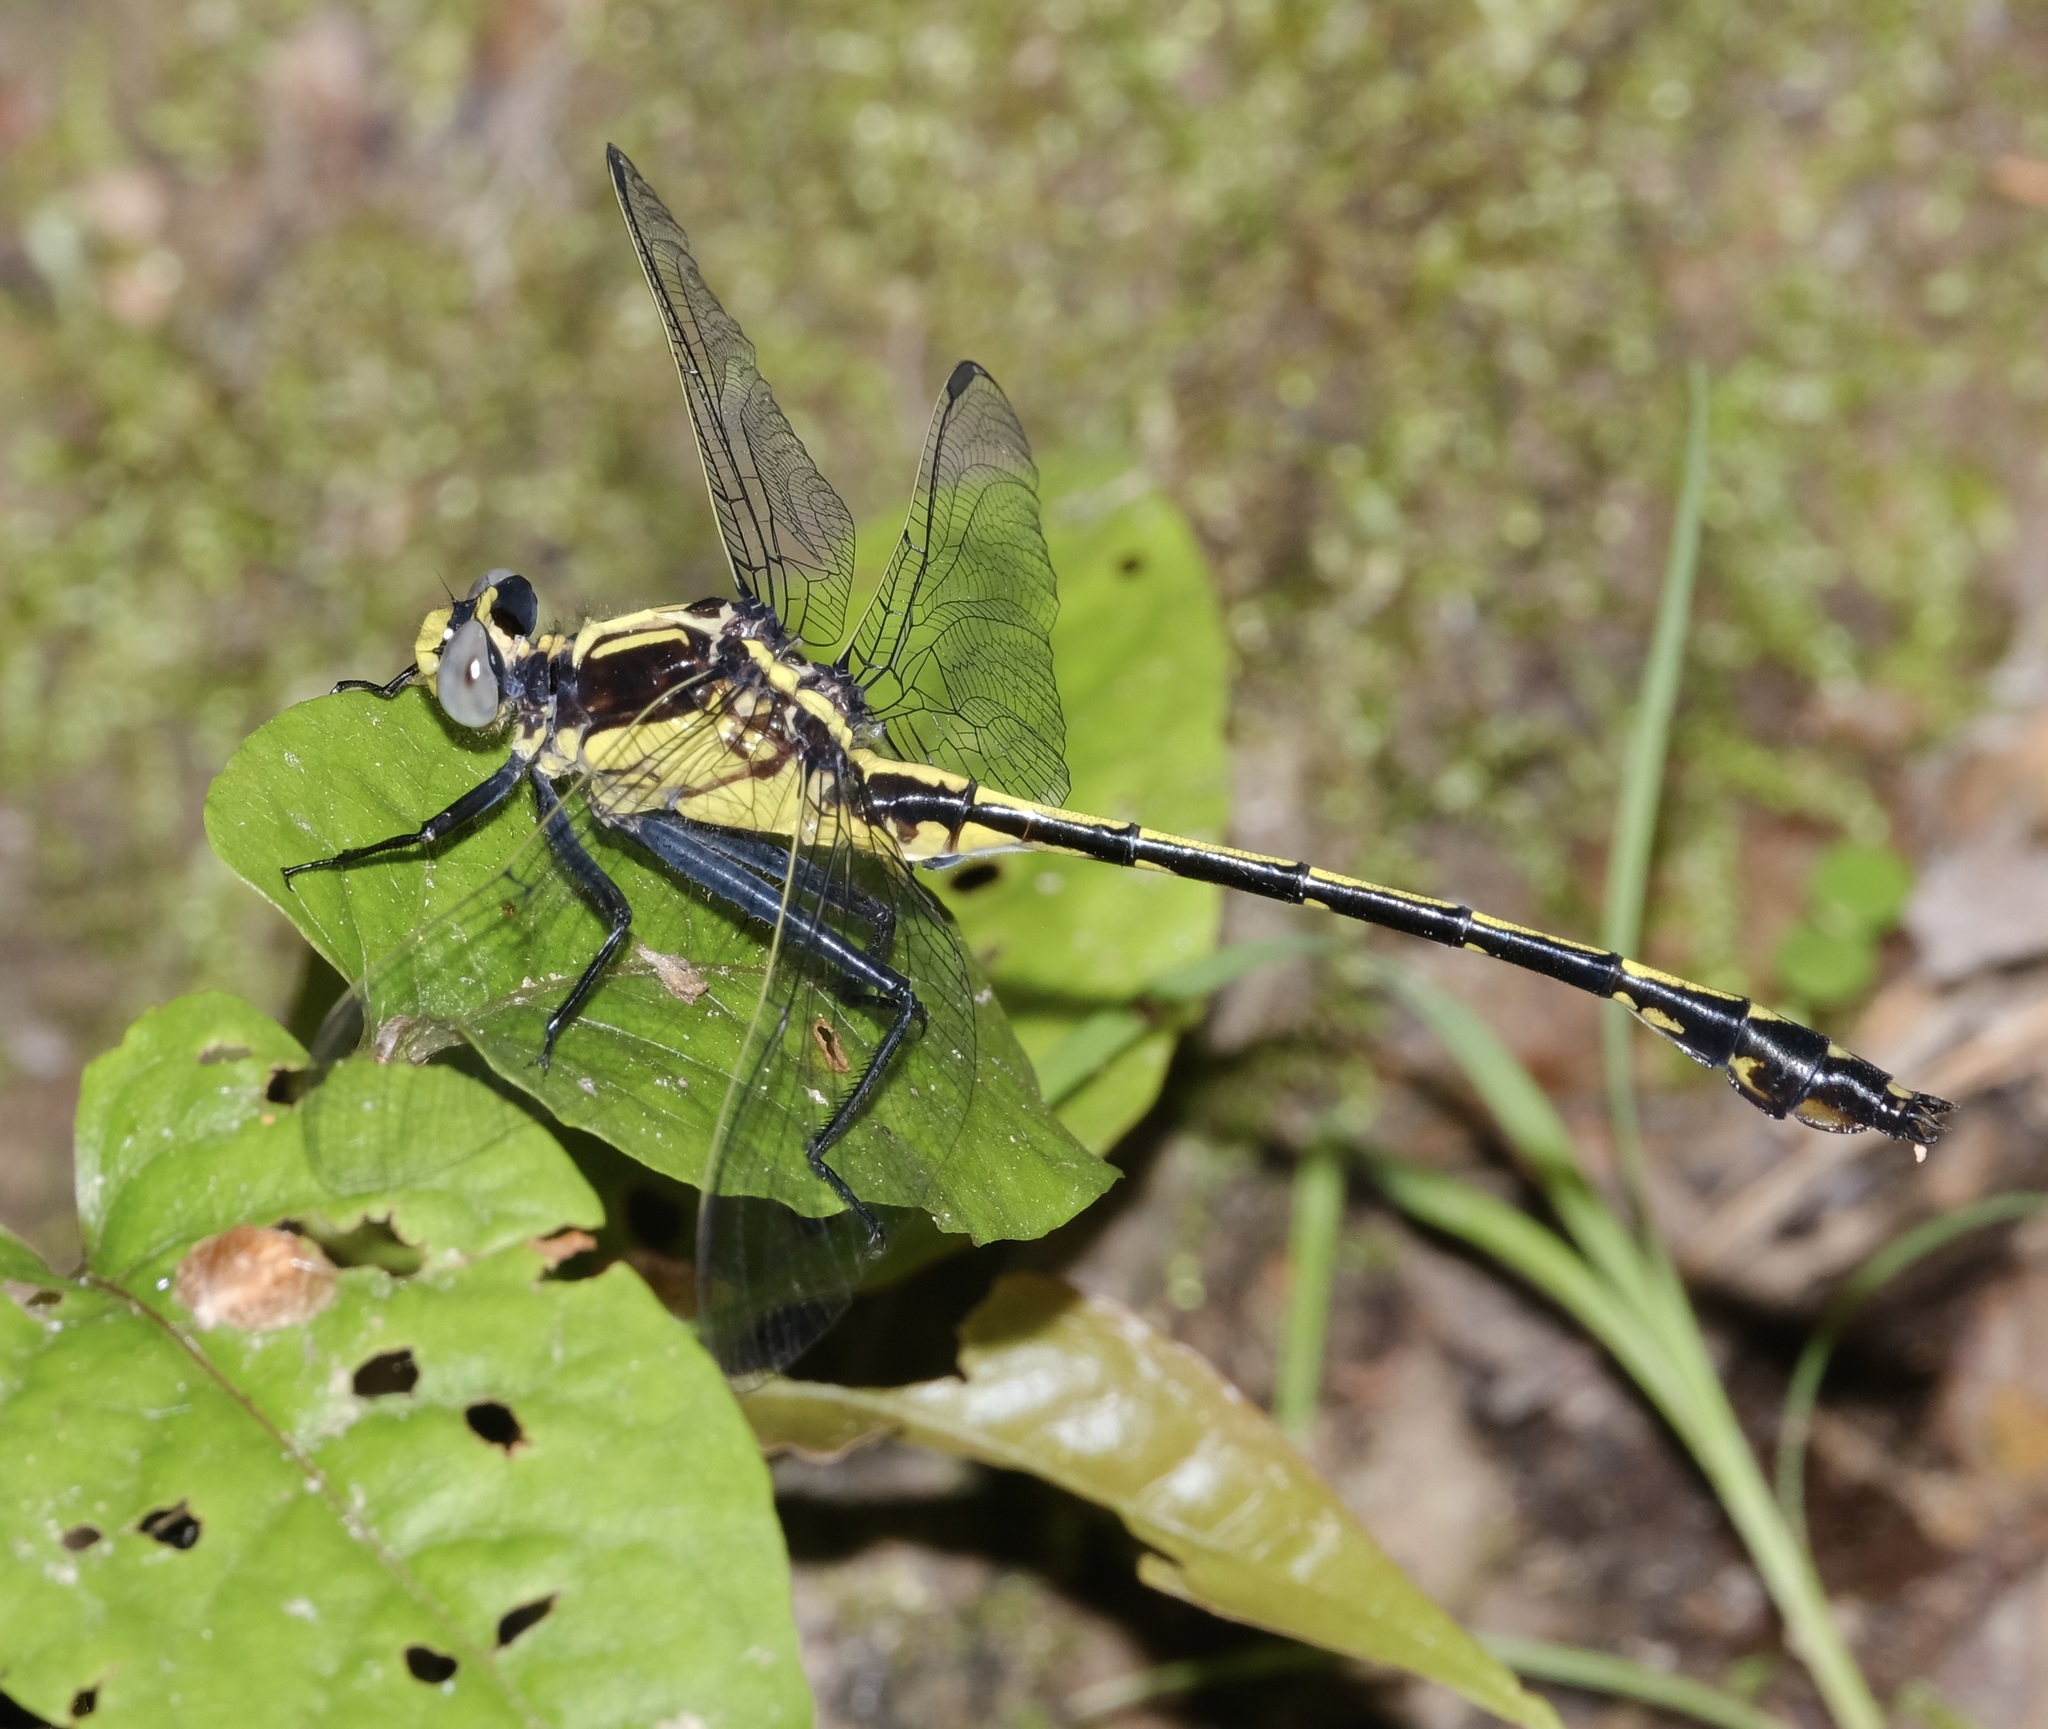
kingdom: Animalia
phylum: Arthropoda
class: Insecta
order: Odonata
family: Gomphidae
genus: Dromogomphus
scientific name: Dromogomphus spinosus
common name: Black-shouldered spinyleg
